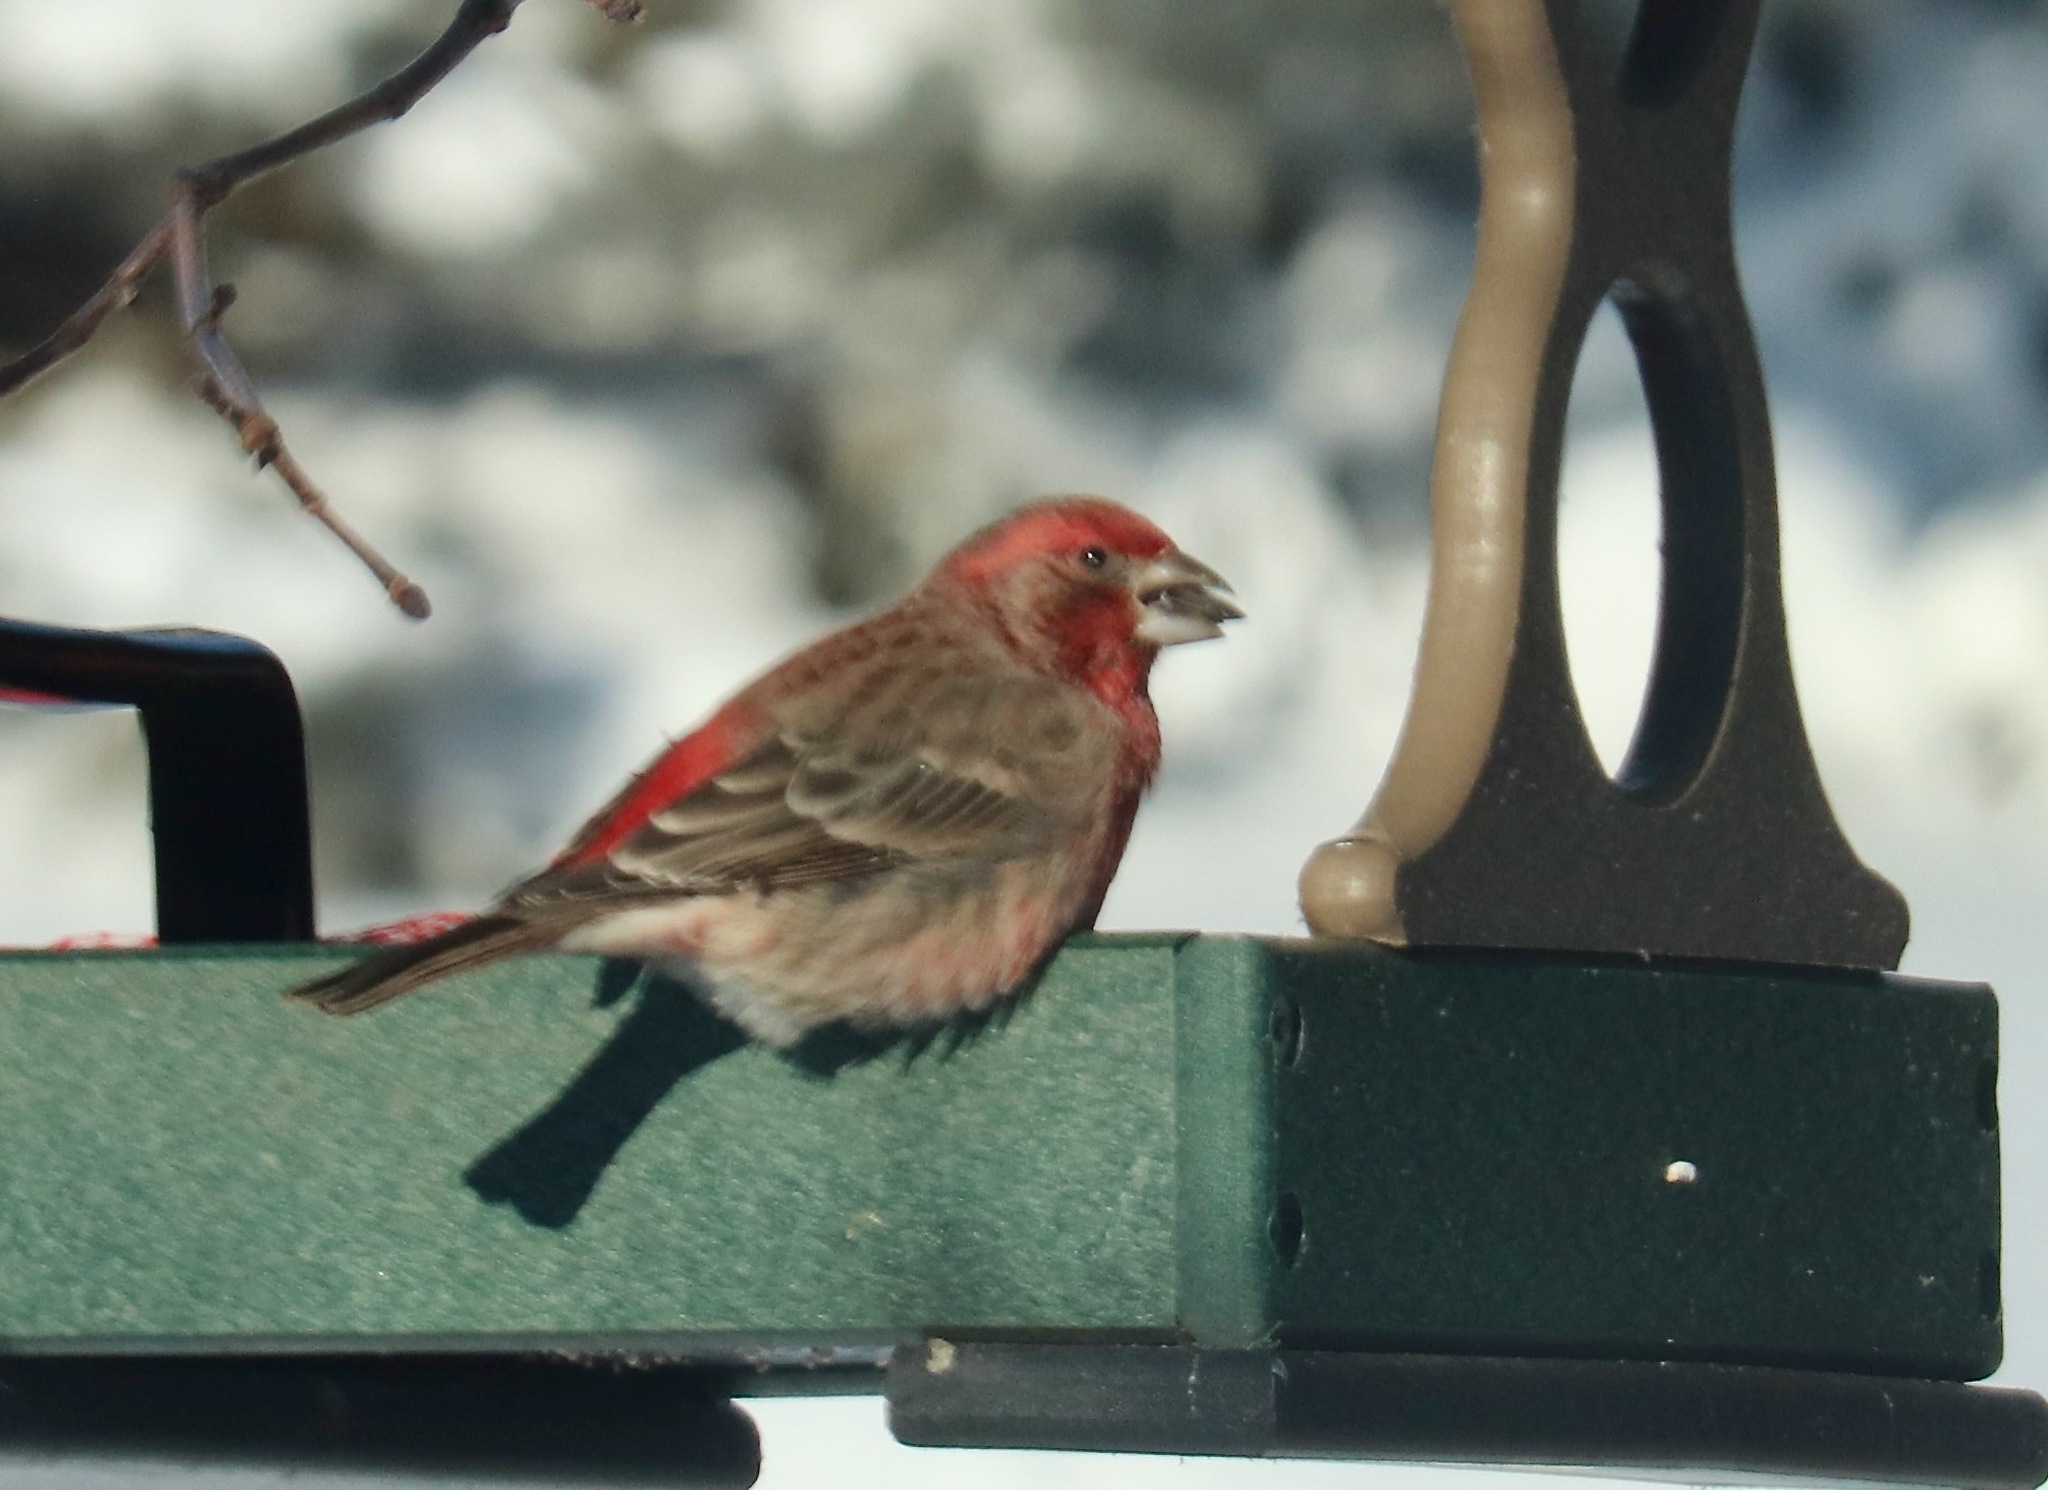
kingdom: Animalia
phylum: Chordata
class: Aves
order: Passeriformes
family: Fringillidae
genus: Haemorhous
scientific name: Haemorhous mexicanus
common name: House finch
